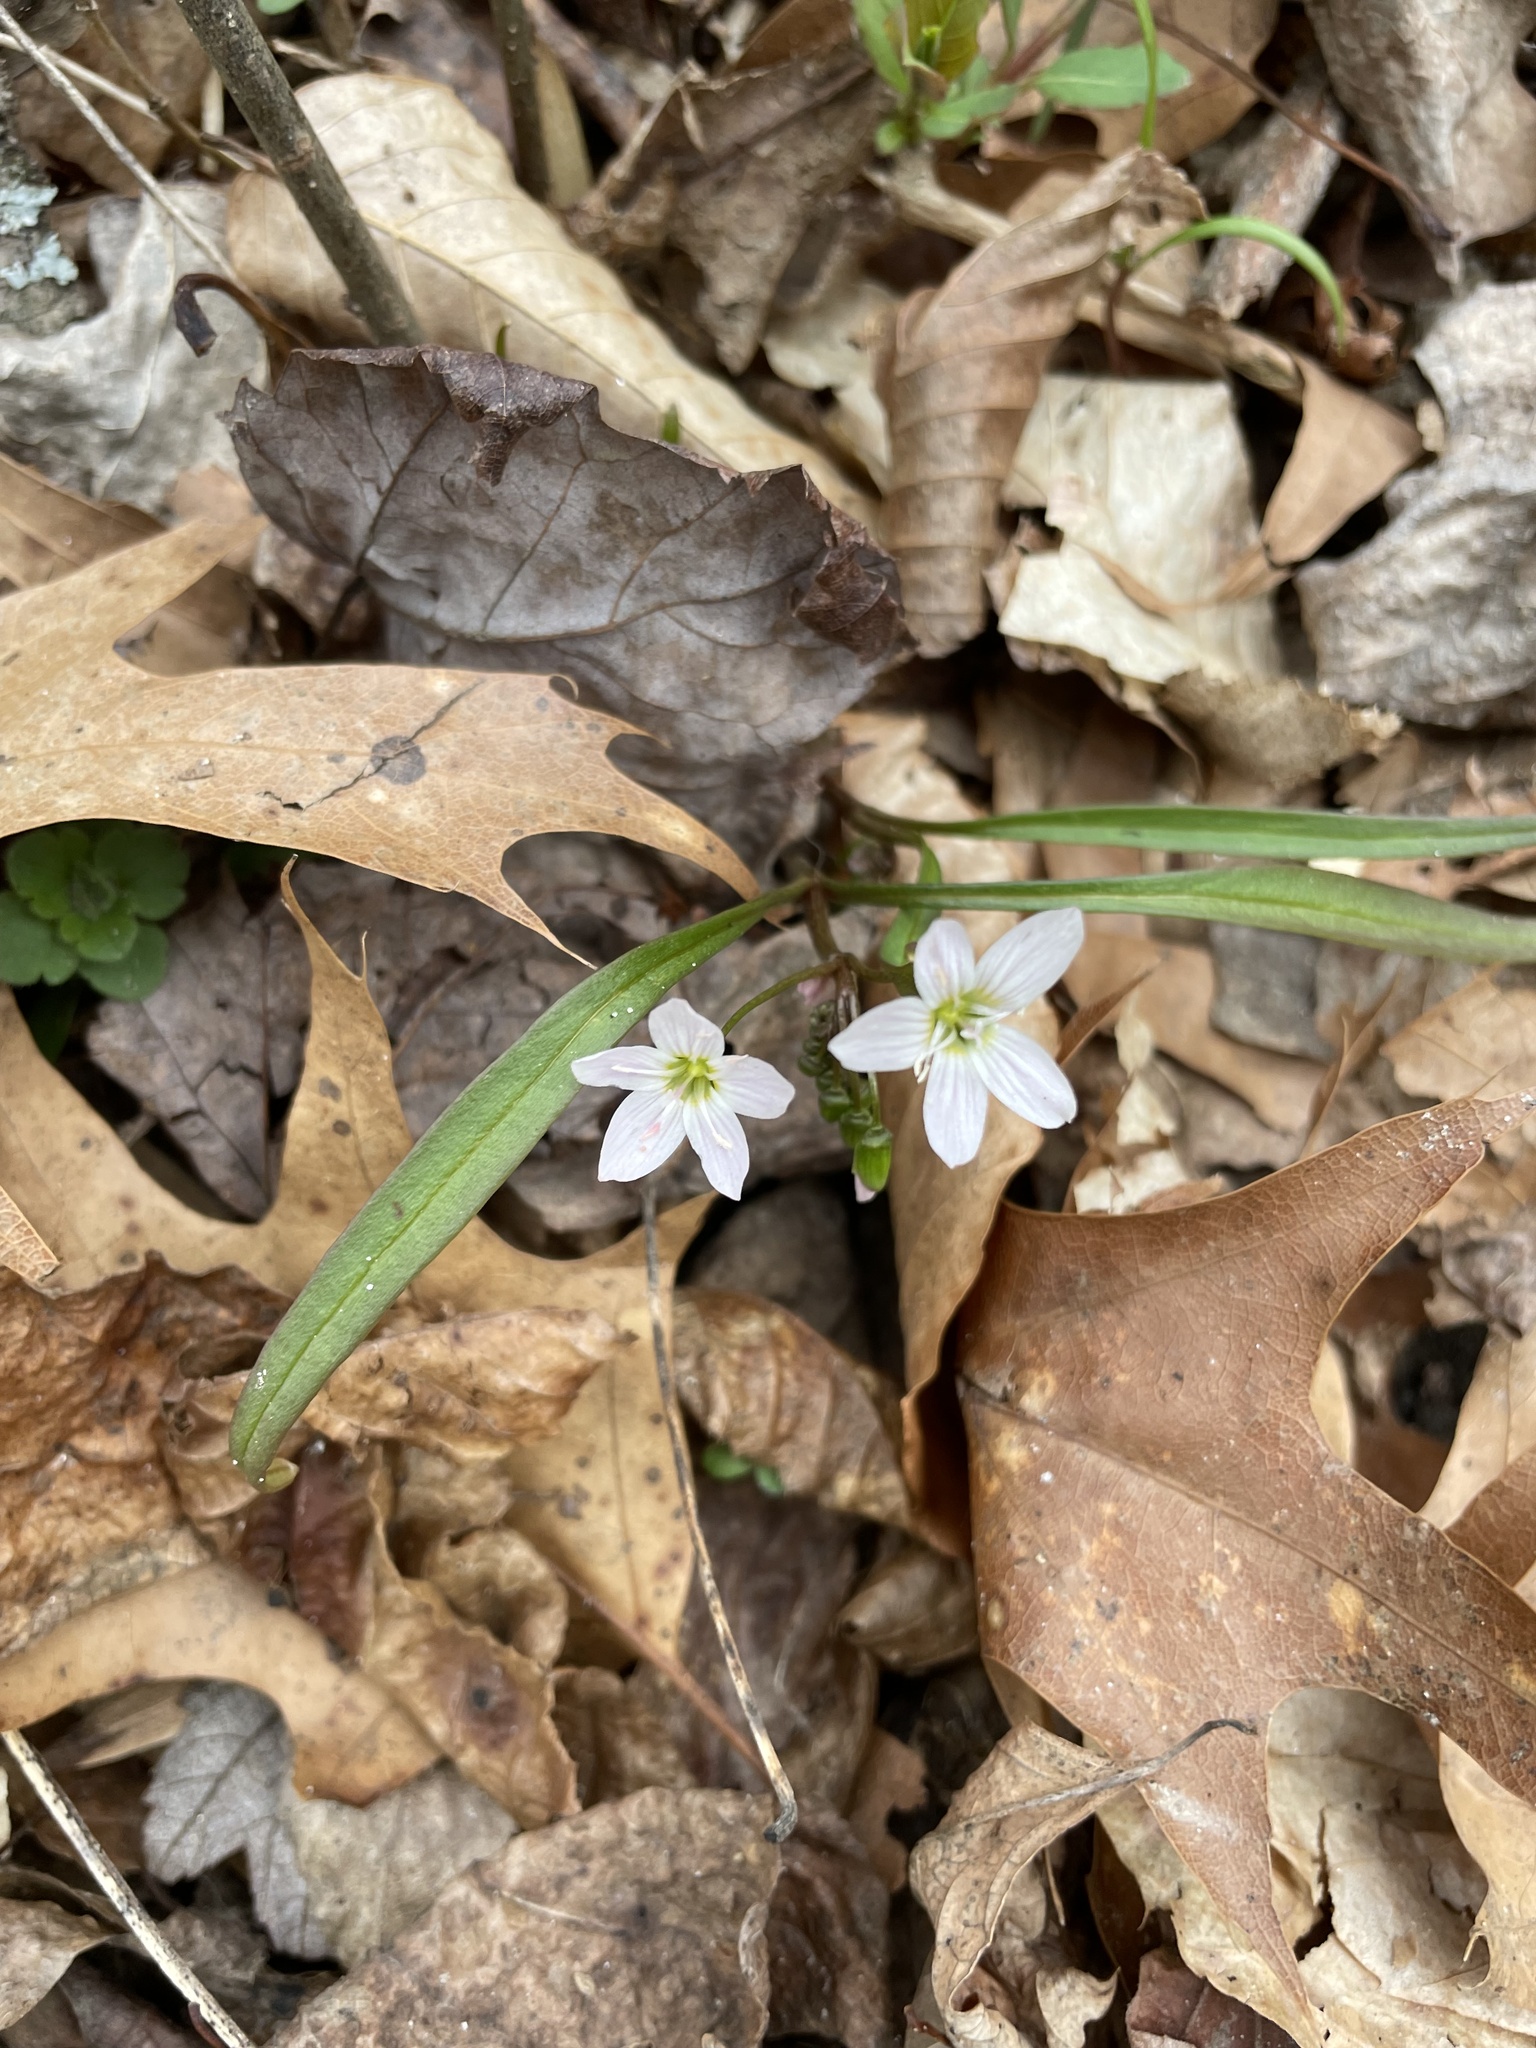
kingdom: Plantae
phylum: Tracheophyta
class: Magnoliopsida
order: Caryophyllales
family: Montiaceae
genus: Claytonia
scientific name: Claytonia virginica
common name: Virginia springbeauty
